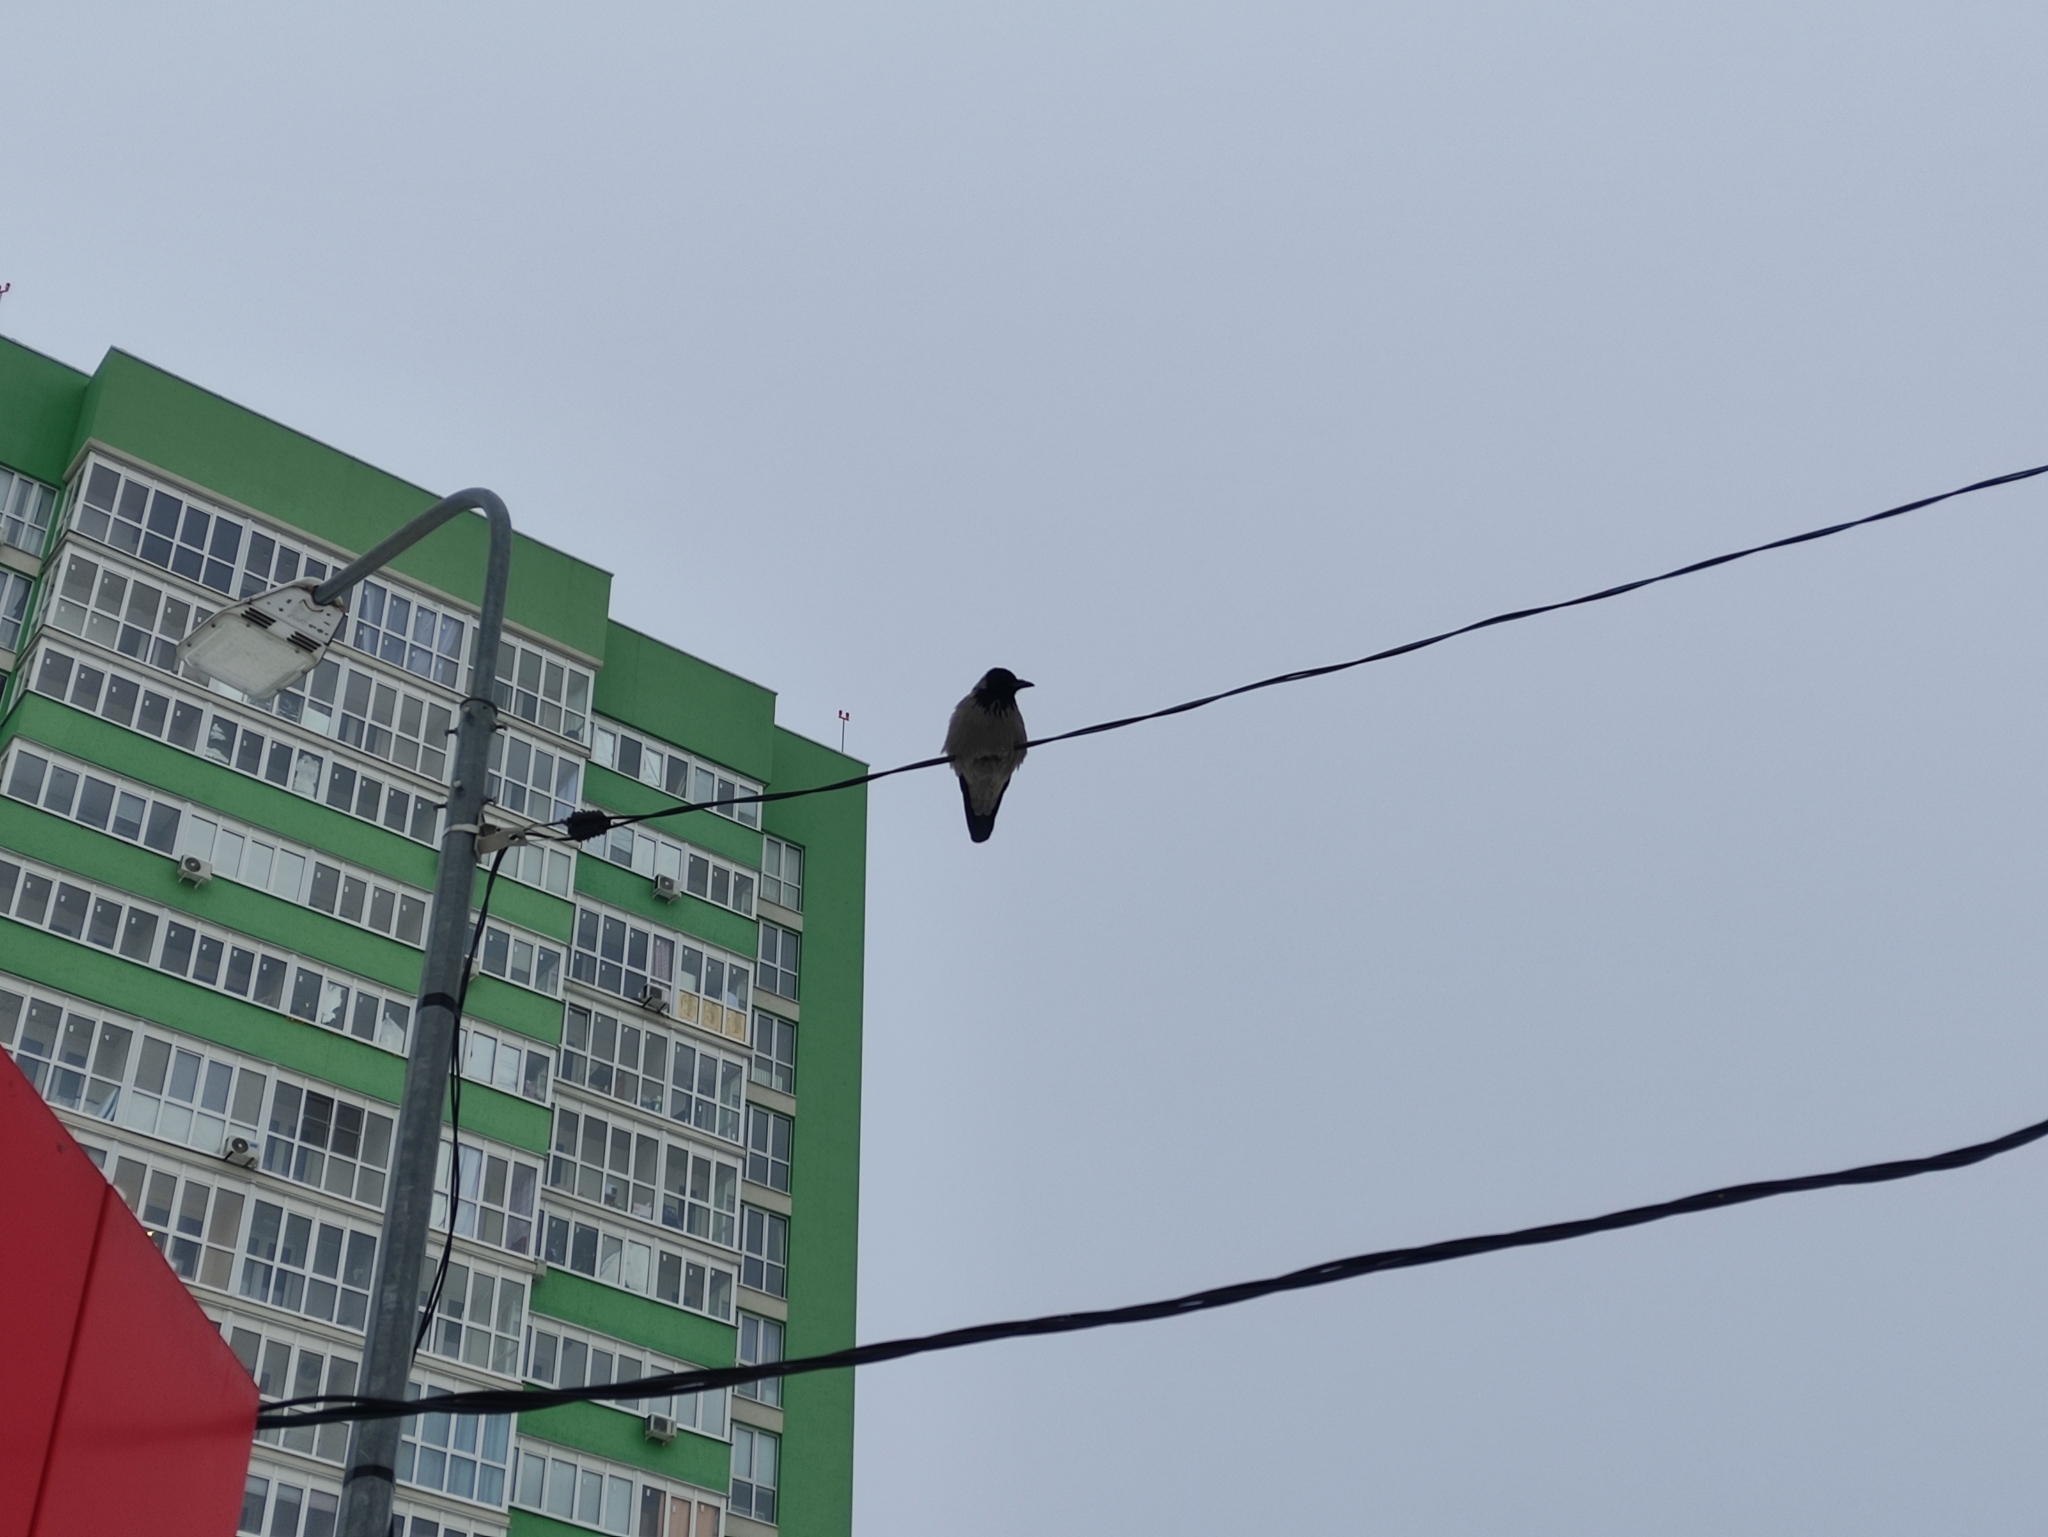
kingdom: Animalia
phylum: Chordata
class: Aves
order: Passeriformes
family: Corvidae
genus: Corvus
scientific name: Corvus cornix
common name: Hooded crow
